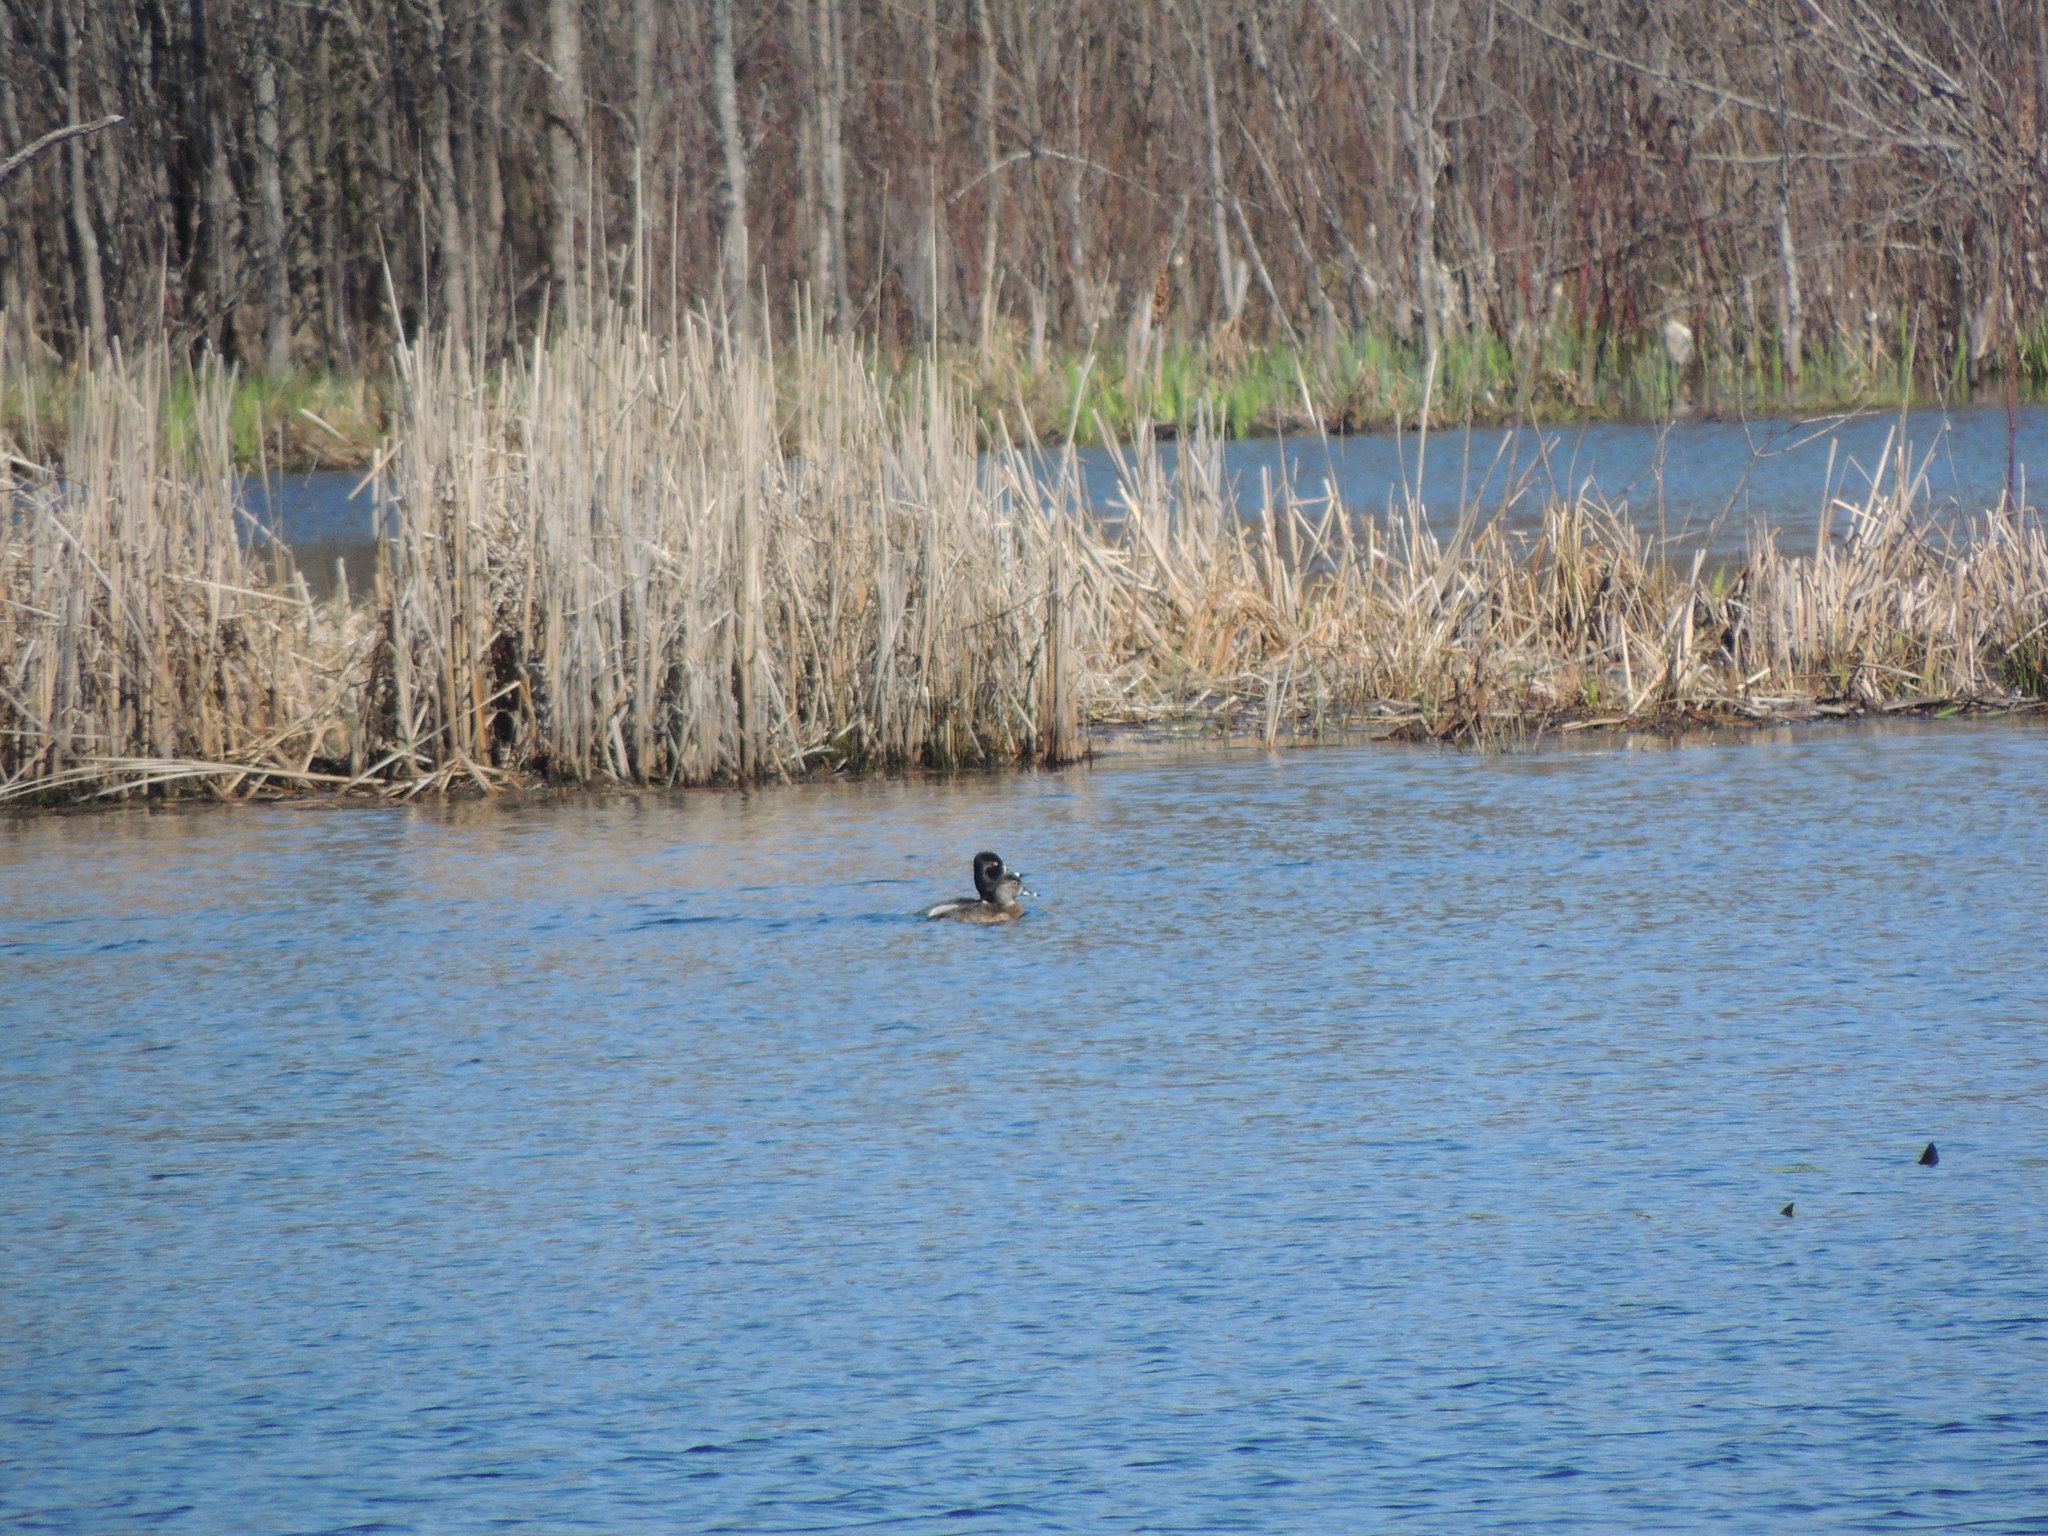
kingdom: Animalia
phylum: Chordata
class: Aves
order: Anseriformes
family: Anatidae
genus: Aythya
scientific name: Aythya collaris
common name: Ring-necked duck
